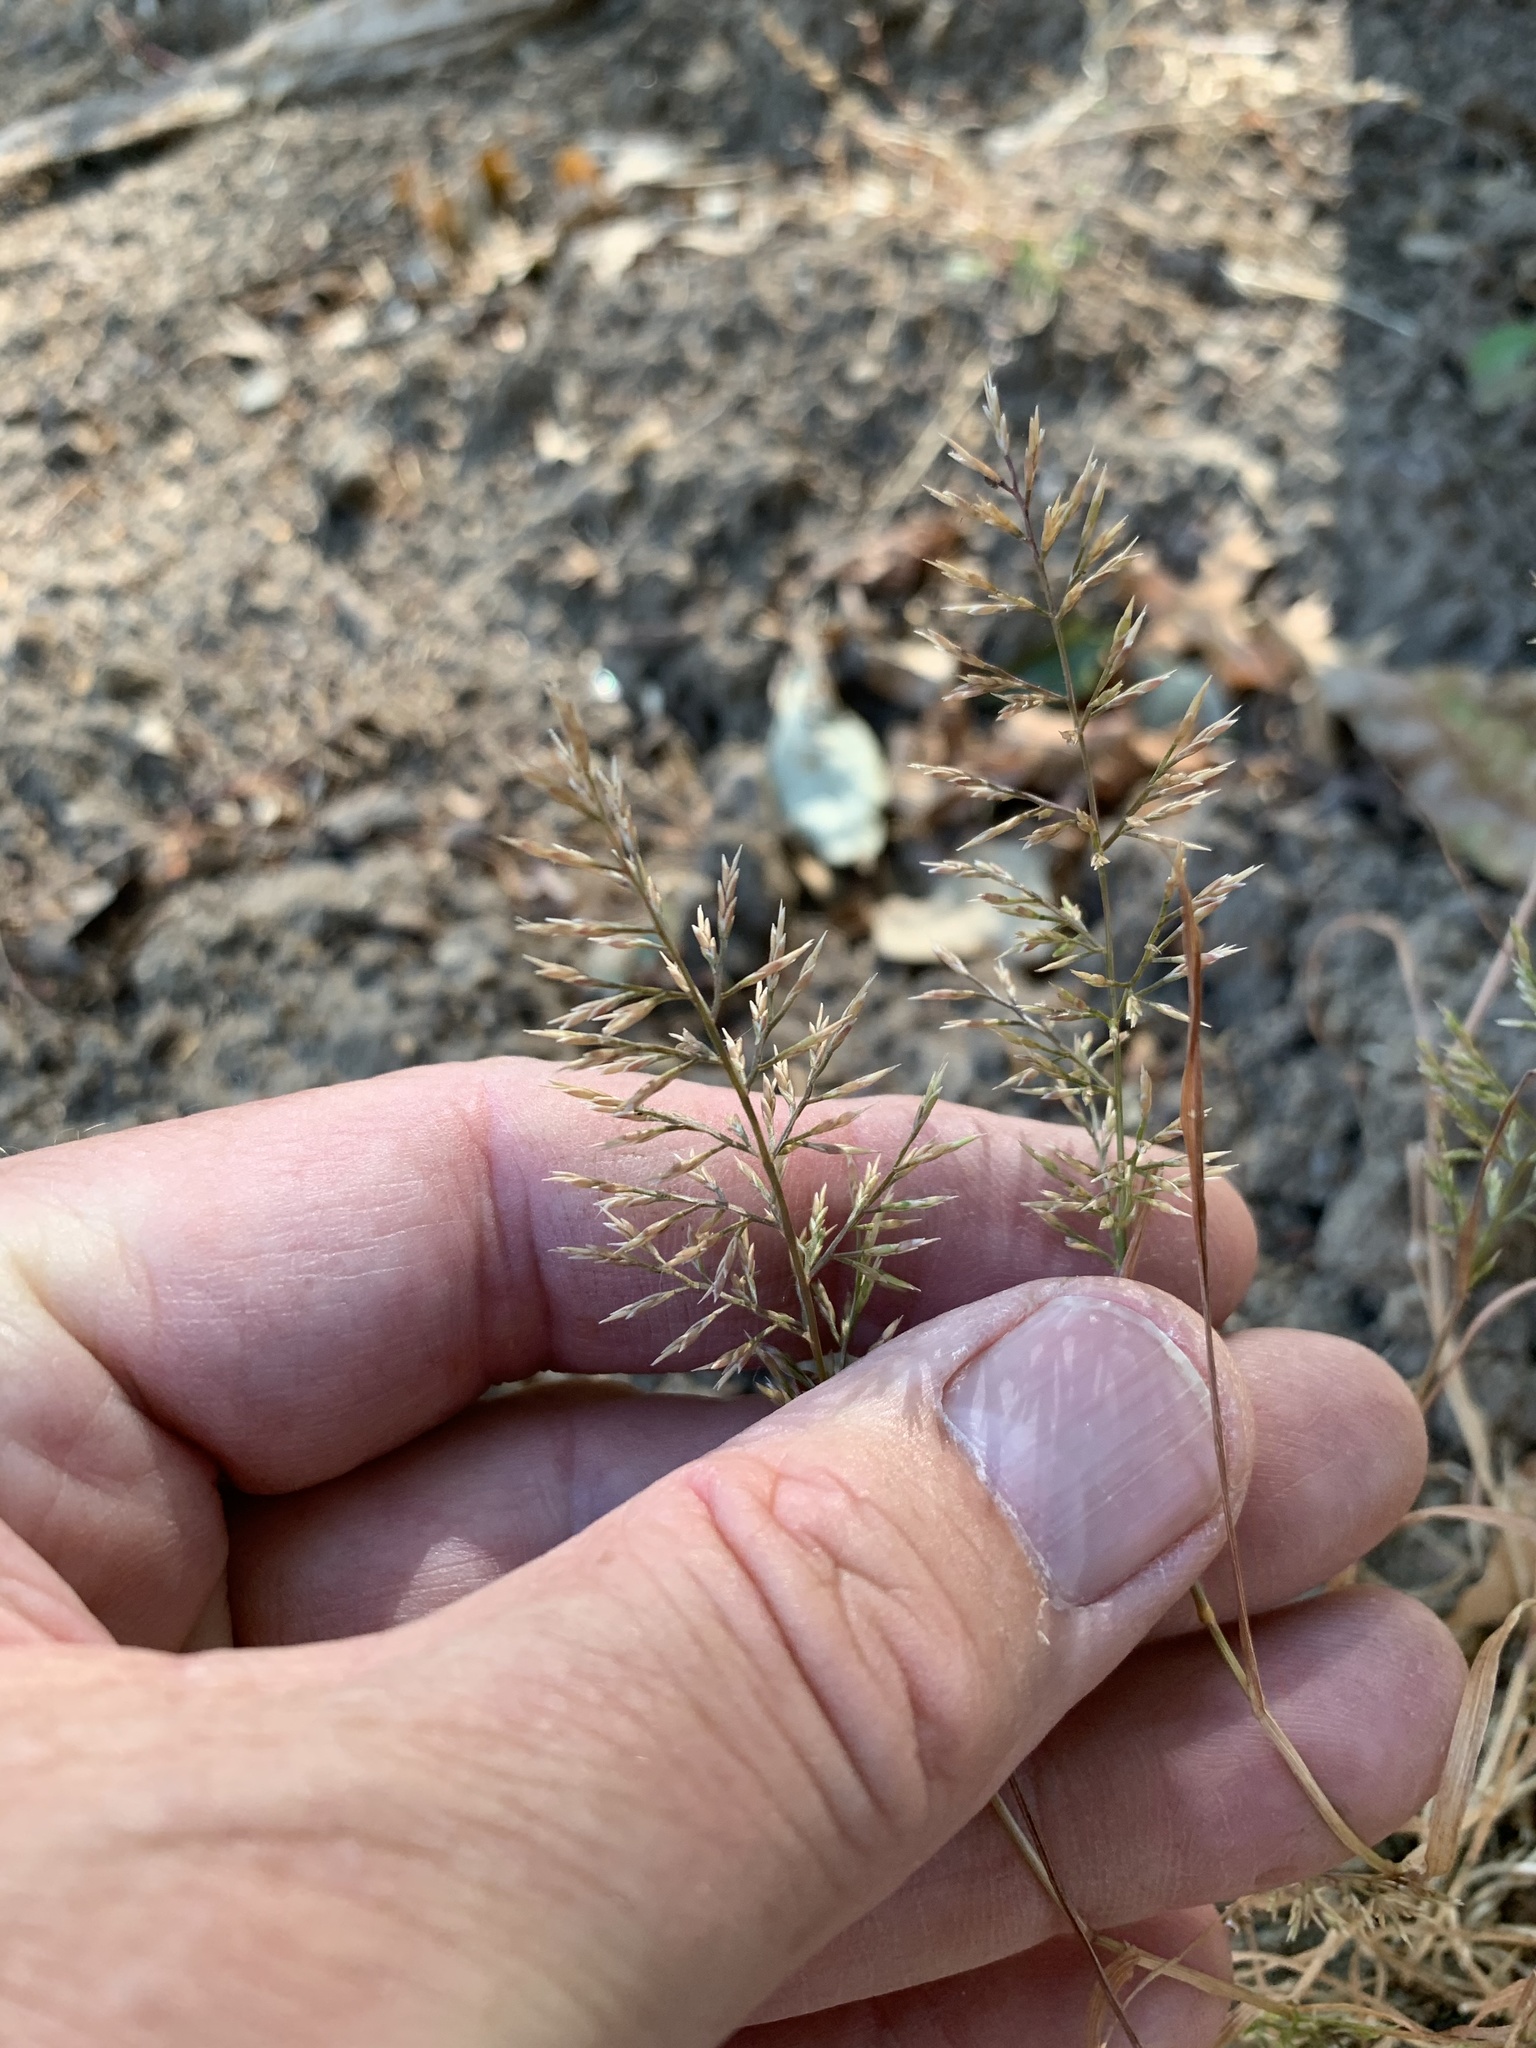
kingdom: Plantae
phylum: Tracheophyta
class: Liliopsida
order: Poales
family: Poaceae
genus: Catapodium
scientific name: Catapodium rigidum
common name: Fern-grass
